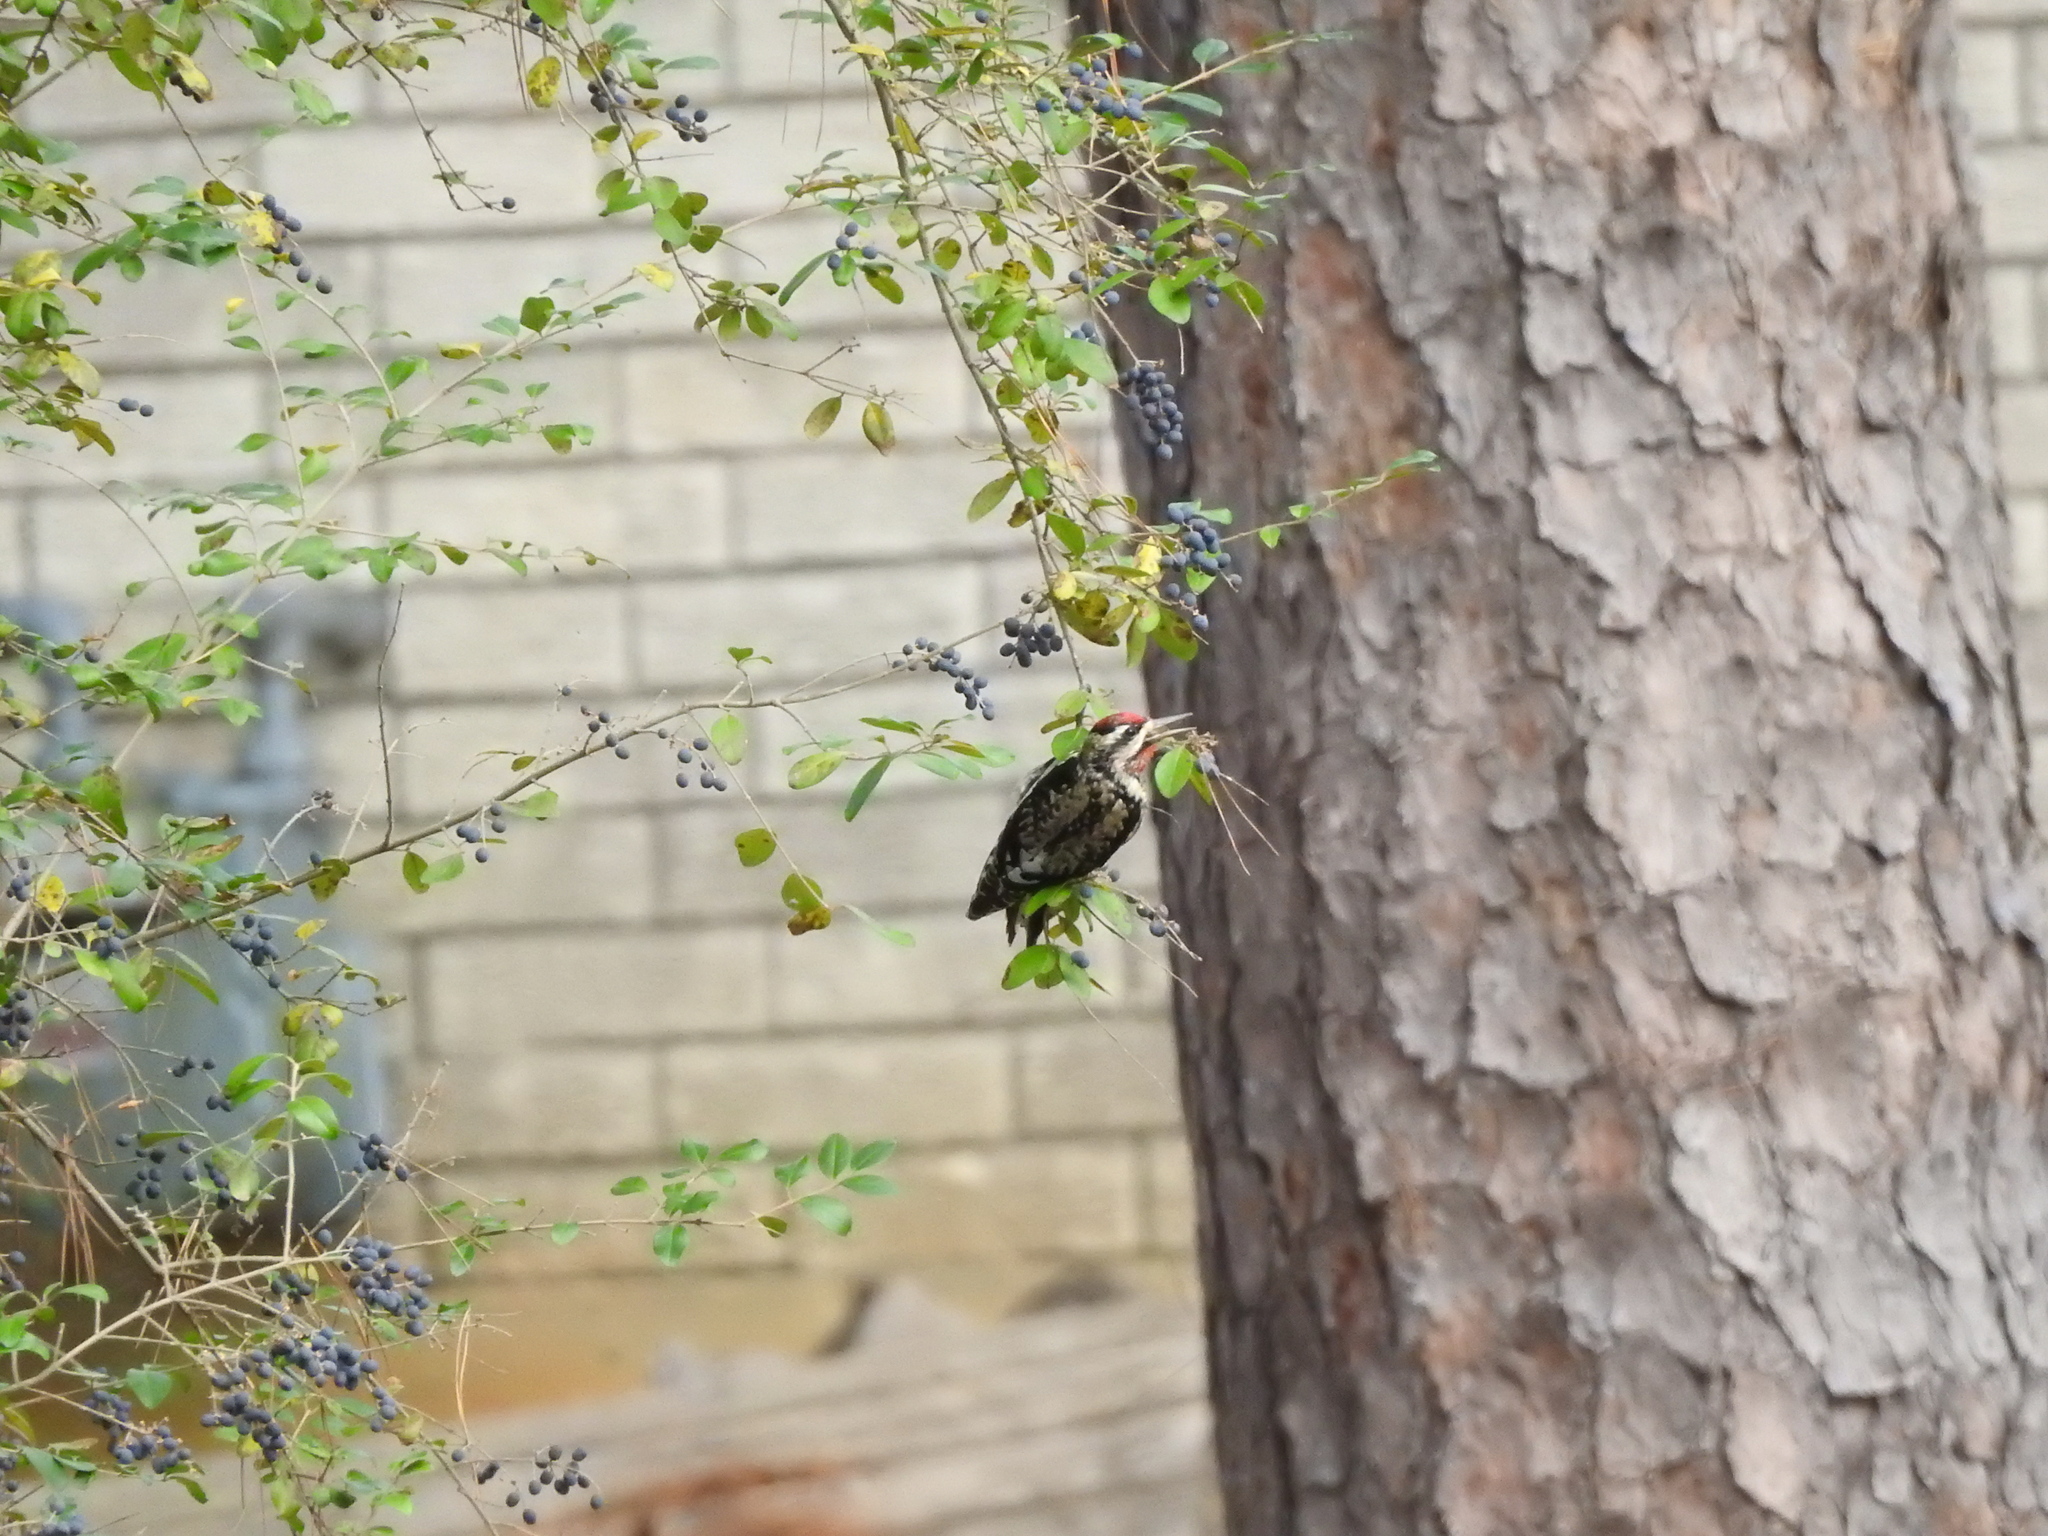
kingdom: Animalia
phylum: Chordata
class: Aves
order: Piciformes
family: Picidae
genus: Sphyrapicus
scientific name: Sphyrapicus varius
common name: Yellow-bellied sapsucker
